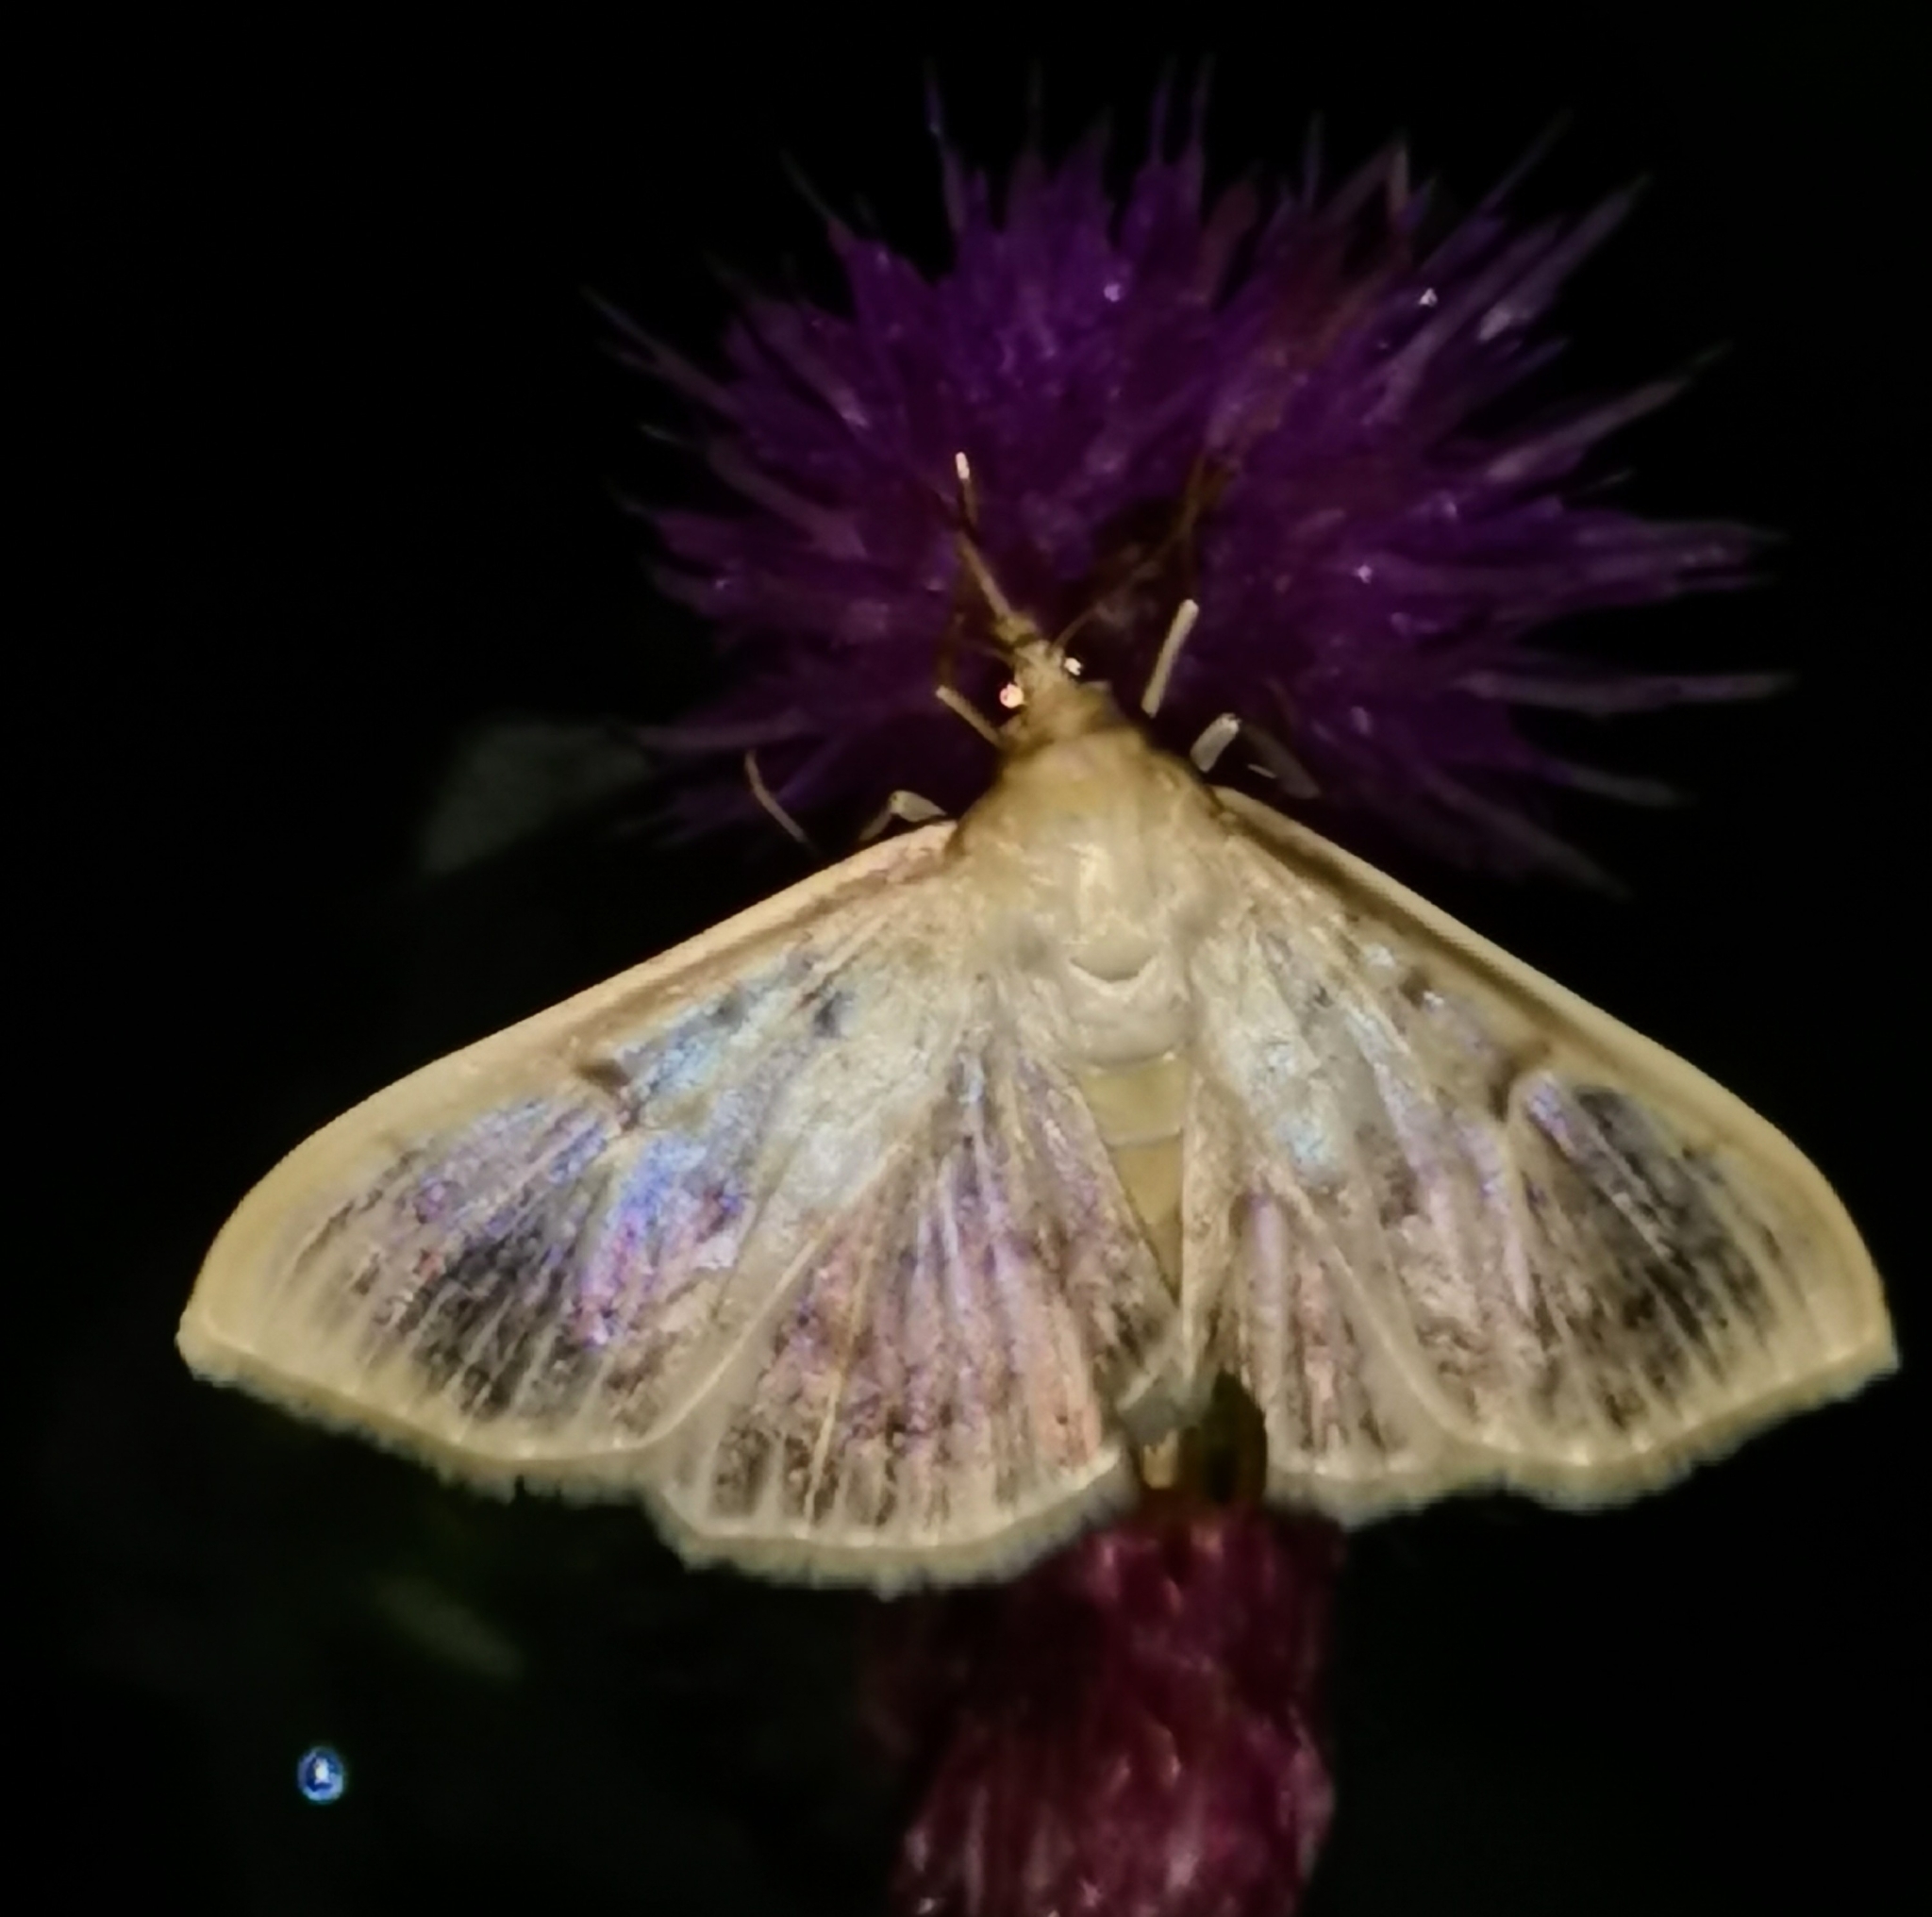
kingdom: Animalia
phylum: Arthropoda
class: Insecta
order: Lepidoptera
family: Crambidae
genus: Patania
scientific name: Patania ruralis
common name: Mother of pearl
